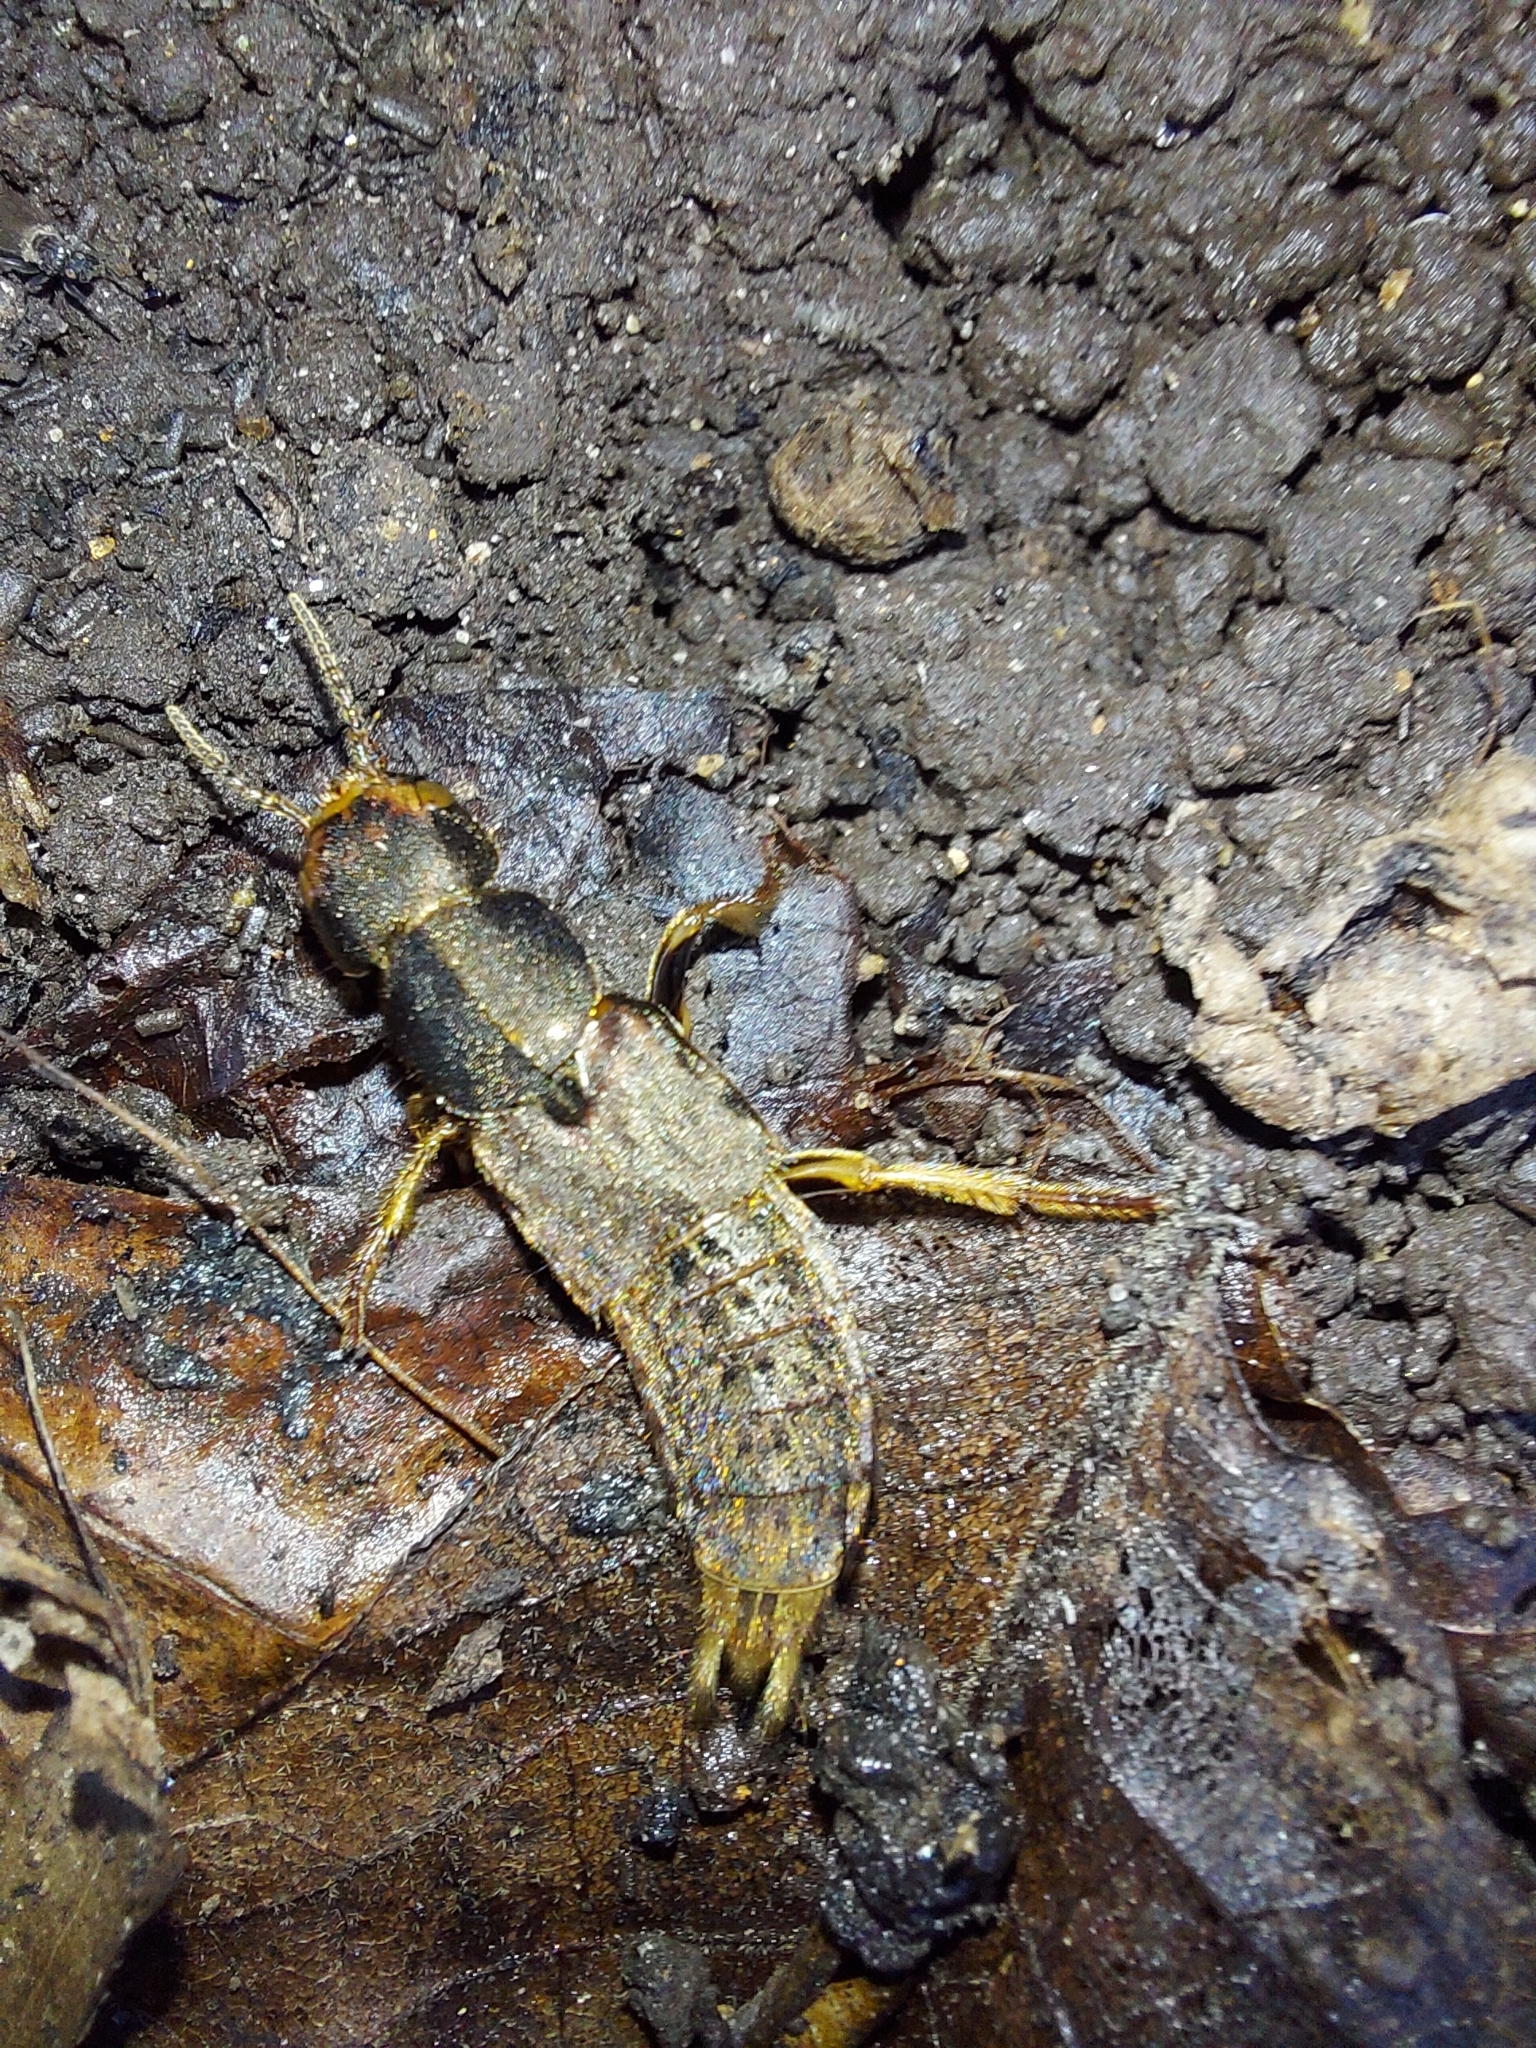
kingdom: Animalia
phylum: Arthropoda
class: Insecta
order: Coleoptera
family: Staphylinidae
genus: Platydracus
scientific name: Platydracus maculosus
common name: Brown rove beetle
